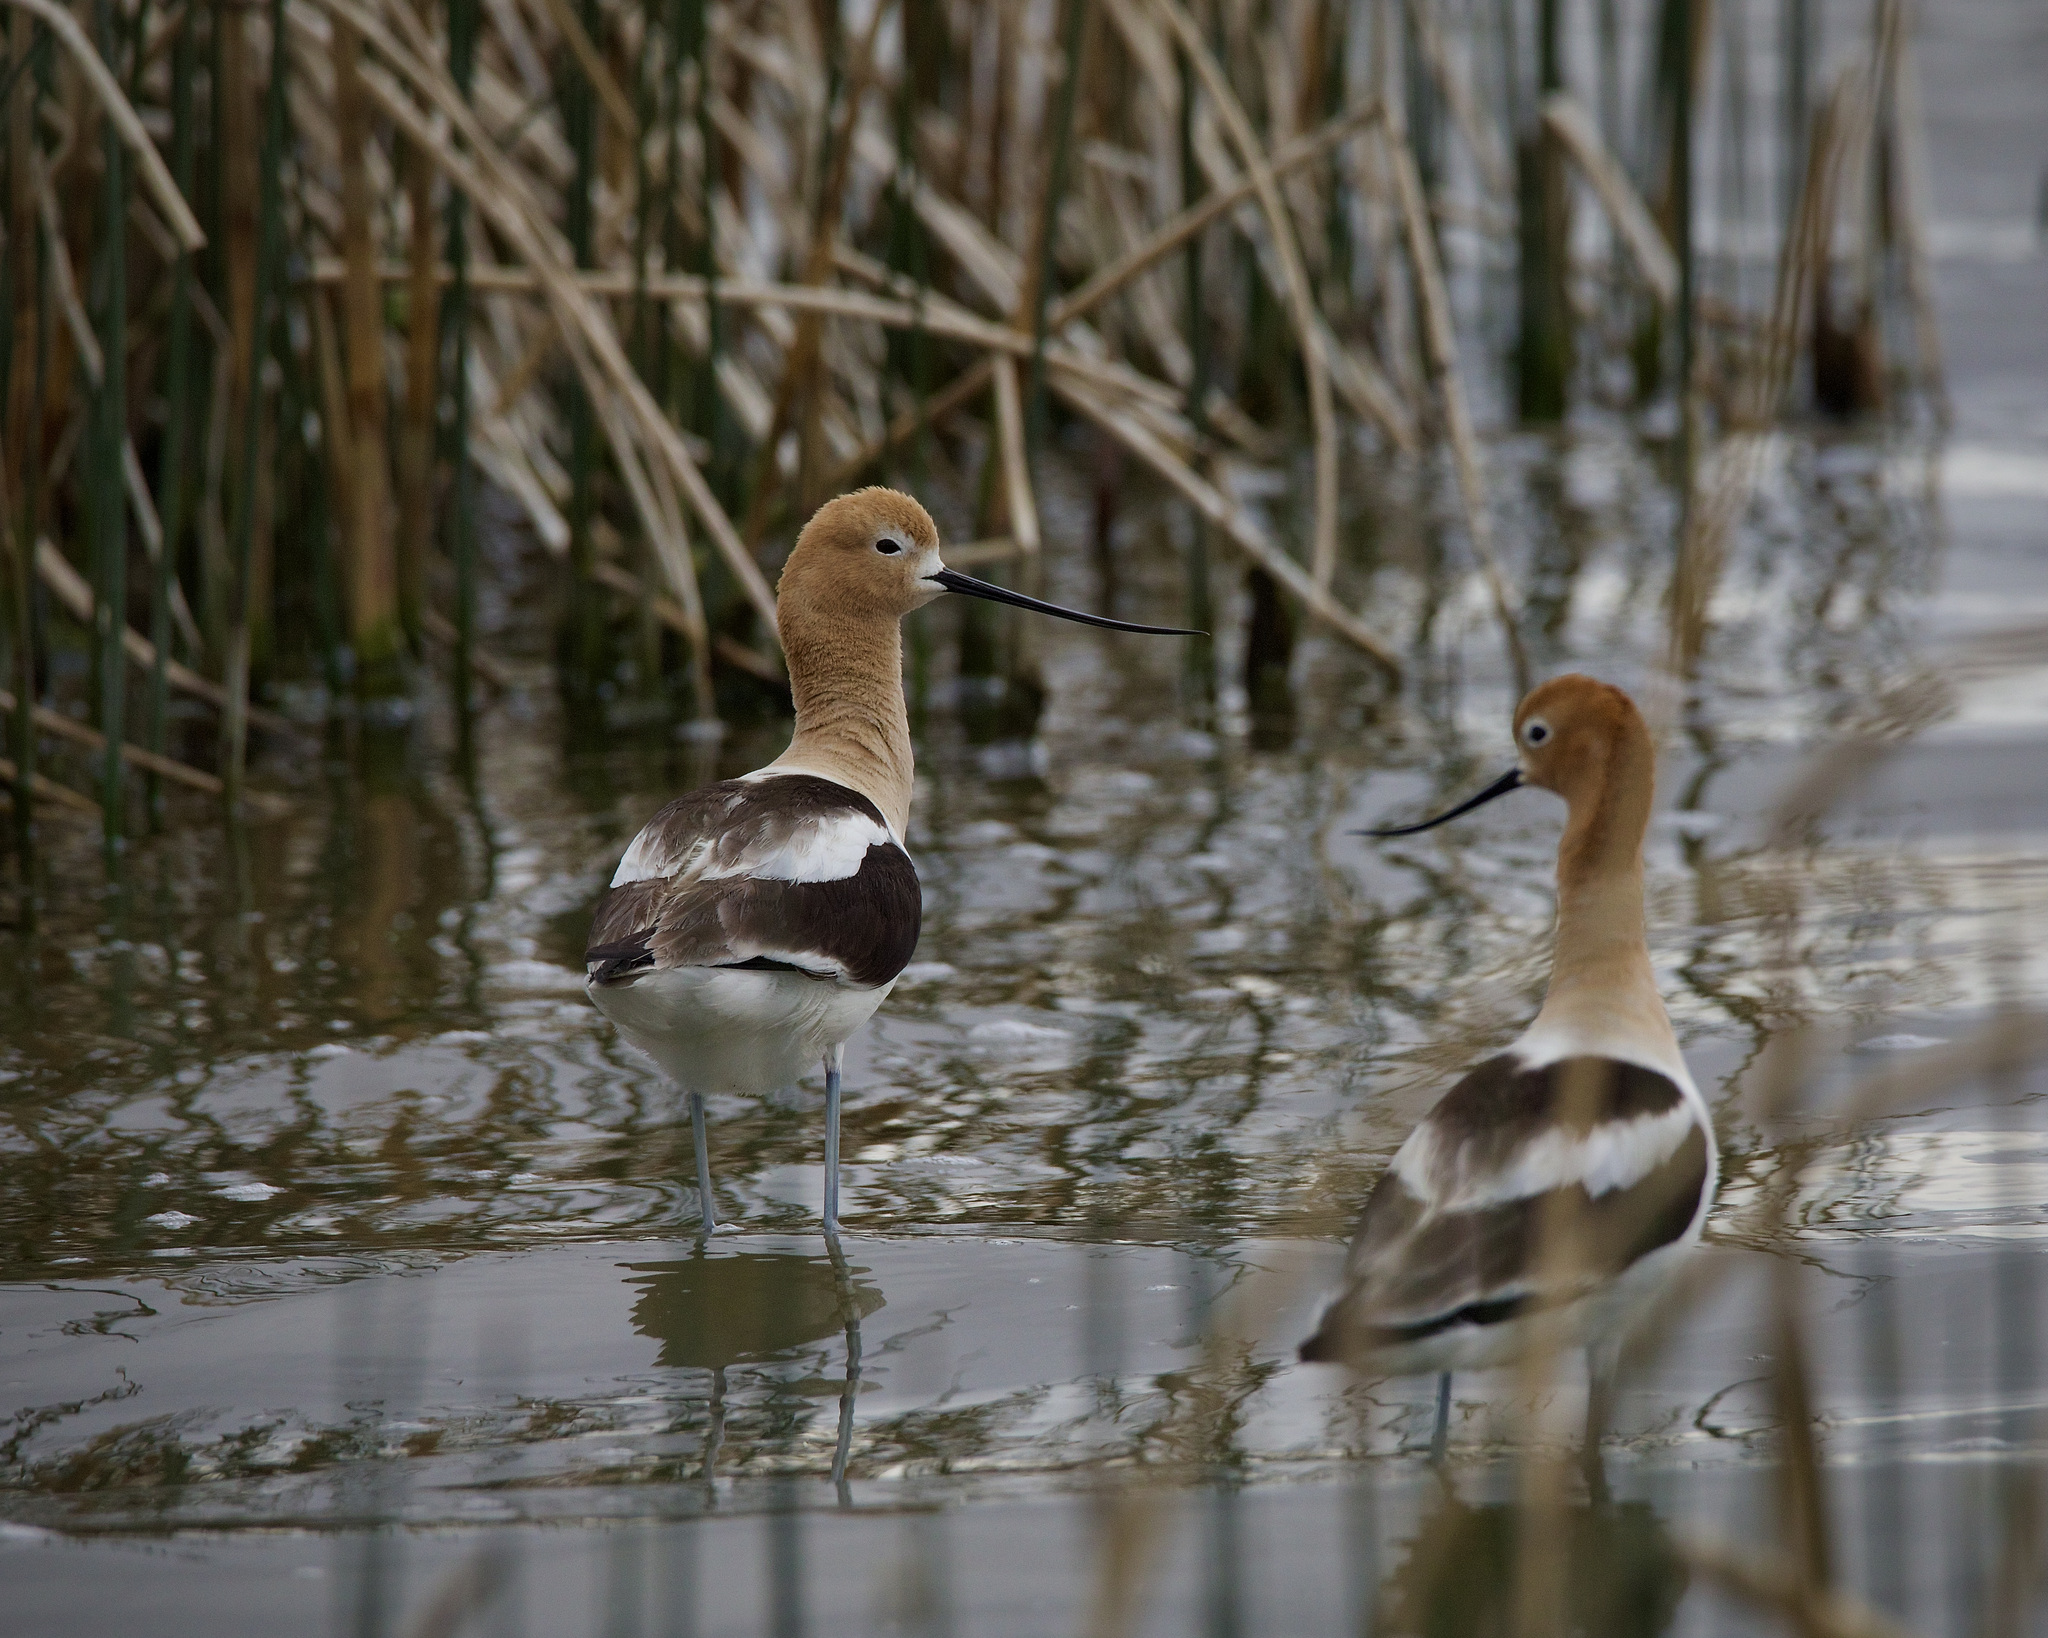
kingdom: Animalia
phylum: Chordata
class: Aves
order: Charadriiformes
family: Recurvirostridae
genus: Recurvirostra
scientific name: Recurvirostra americana
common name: American avocet
